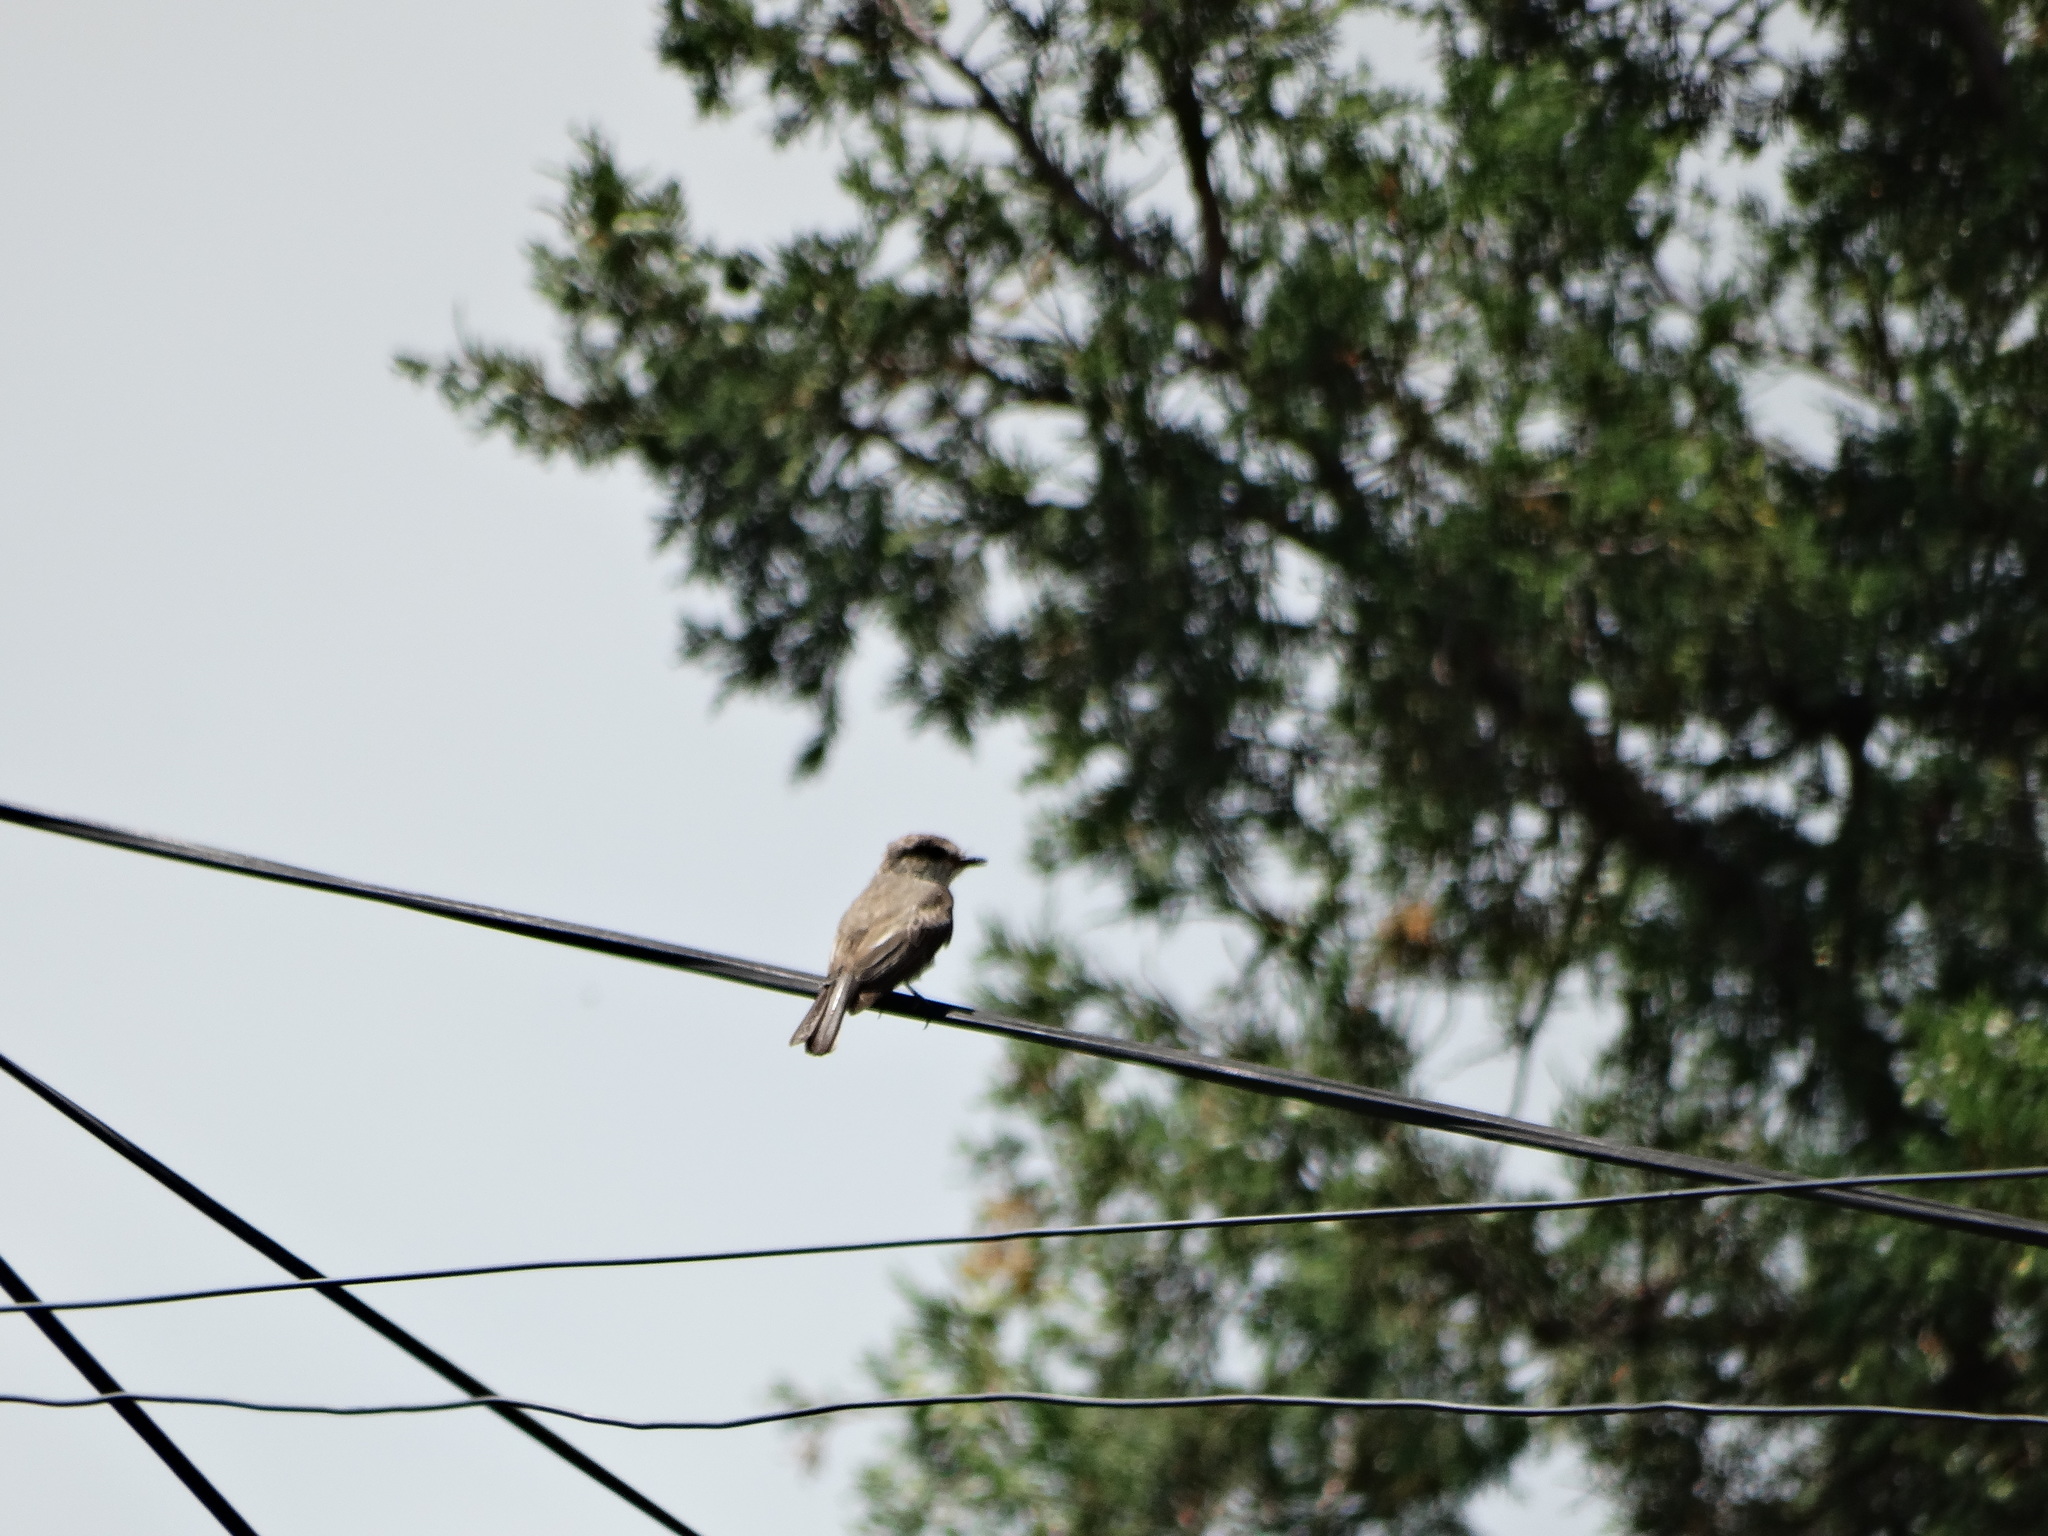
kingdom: Animalia
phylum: Chordata
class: Aves
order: Passeriformes
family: Tyrannidae
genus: Pyrocephalus
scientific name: Pyrocephalus rubinus
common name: Vermilion flycatcher
